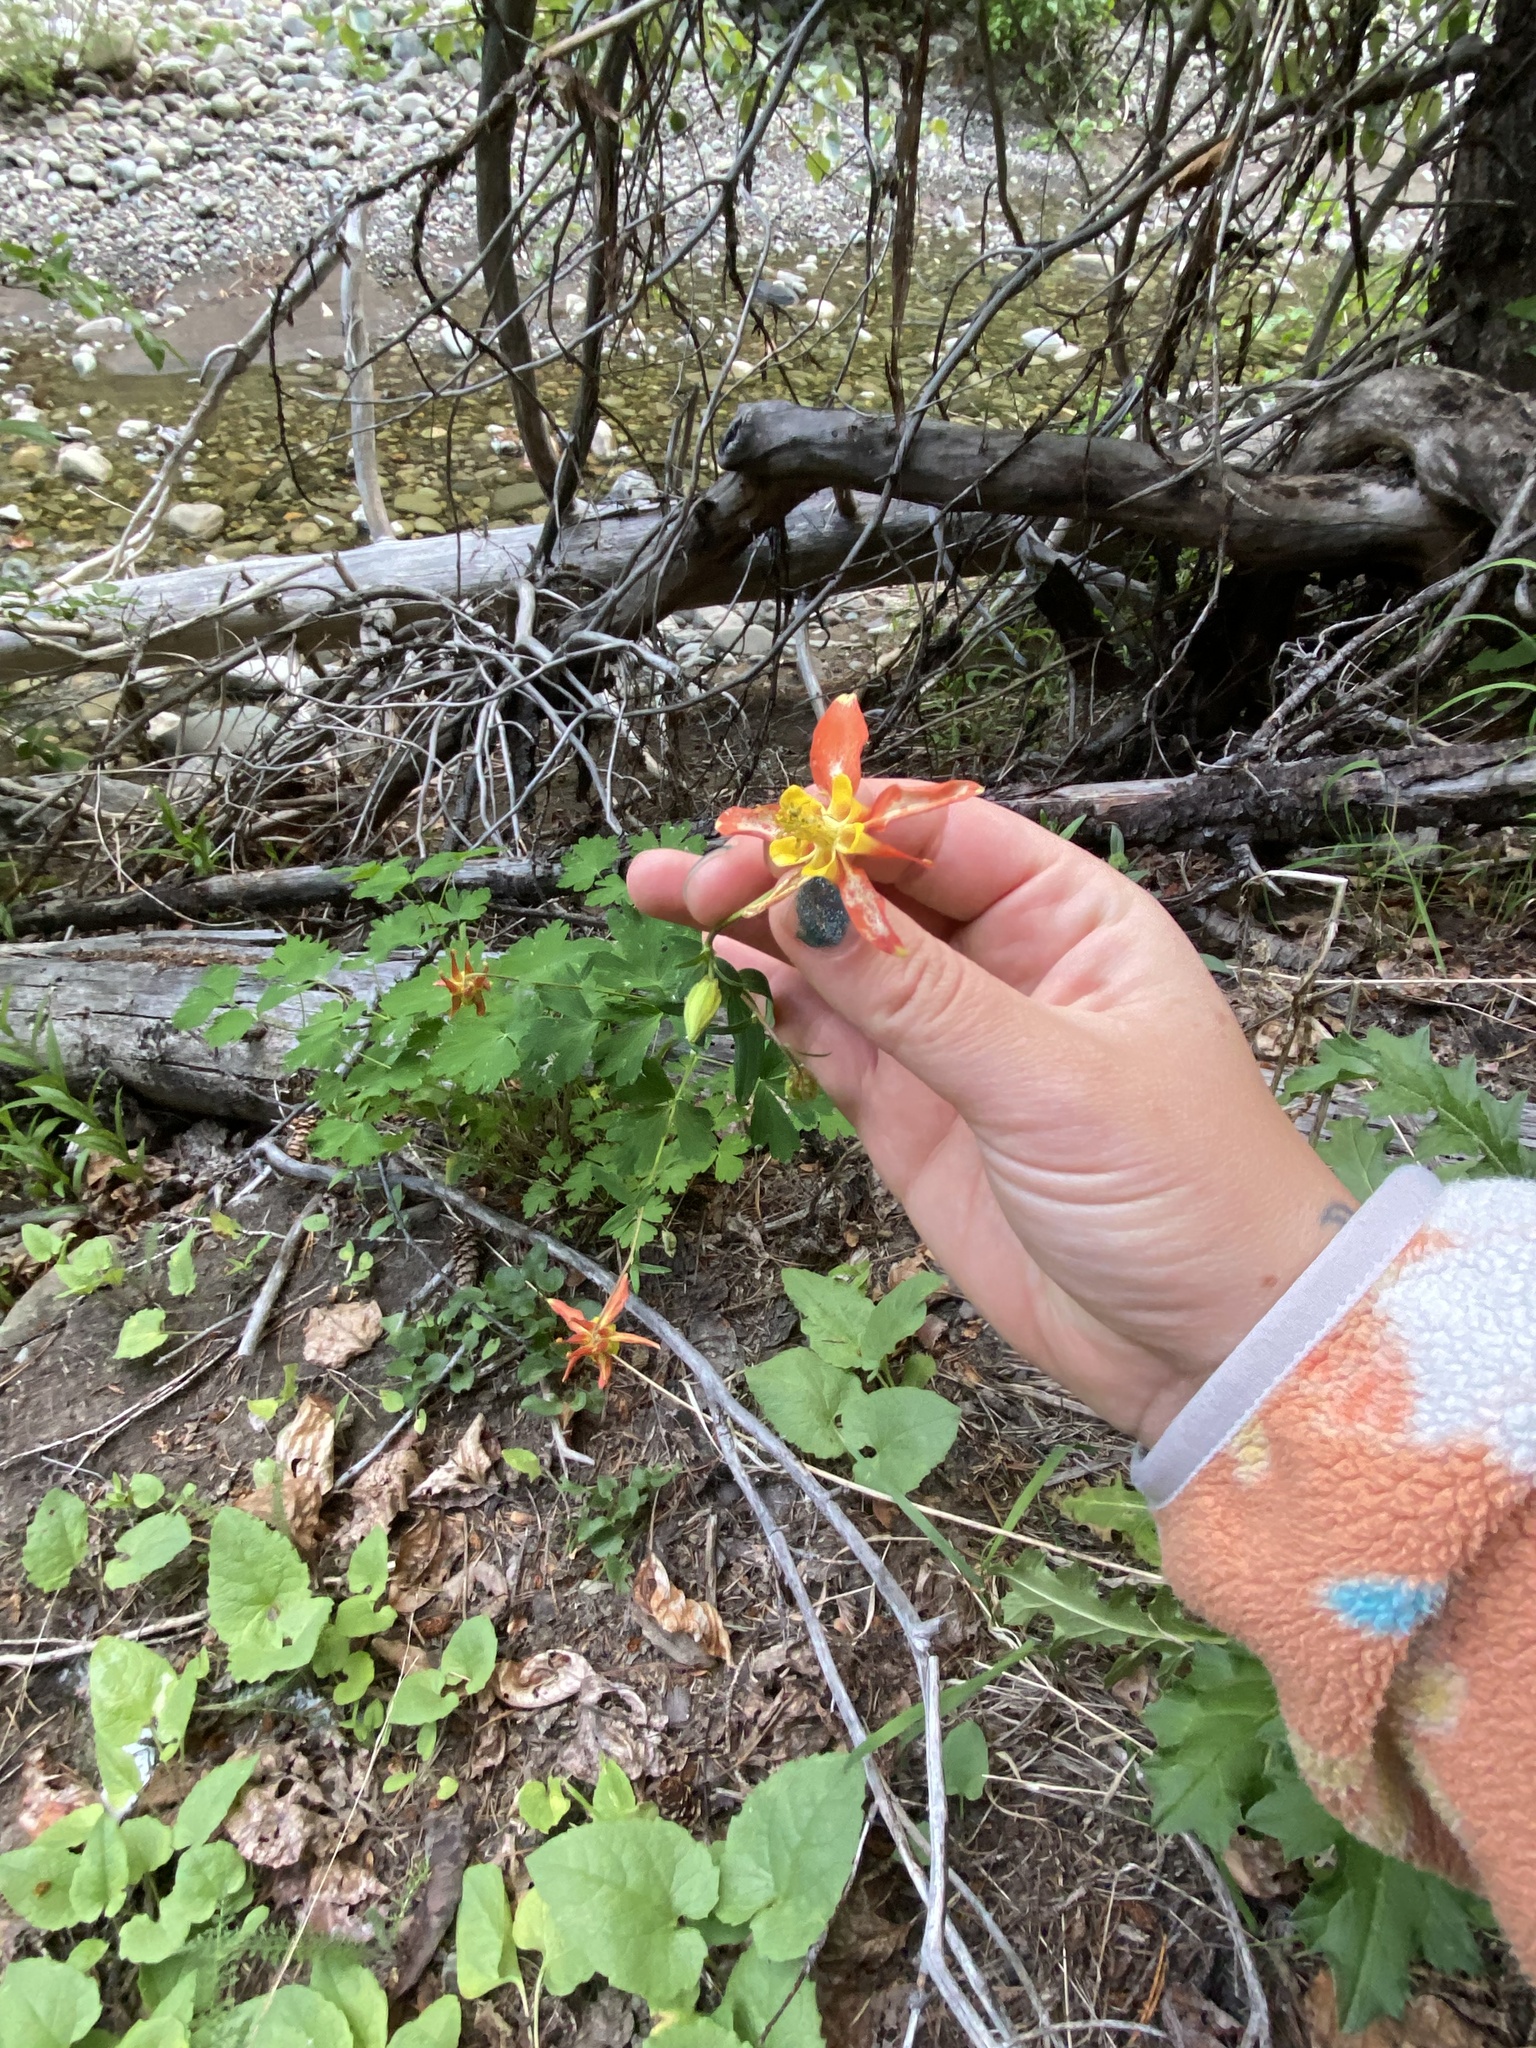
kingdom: Plantae
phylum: Tracheophyta
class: Magnoliopsida
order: Ranunculales
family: Ranunculaceae
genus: Aquilegia
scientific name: Aquilegia formosa
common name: Sitka columbine
